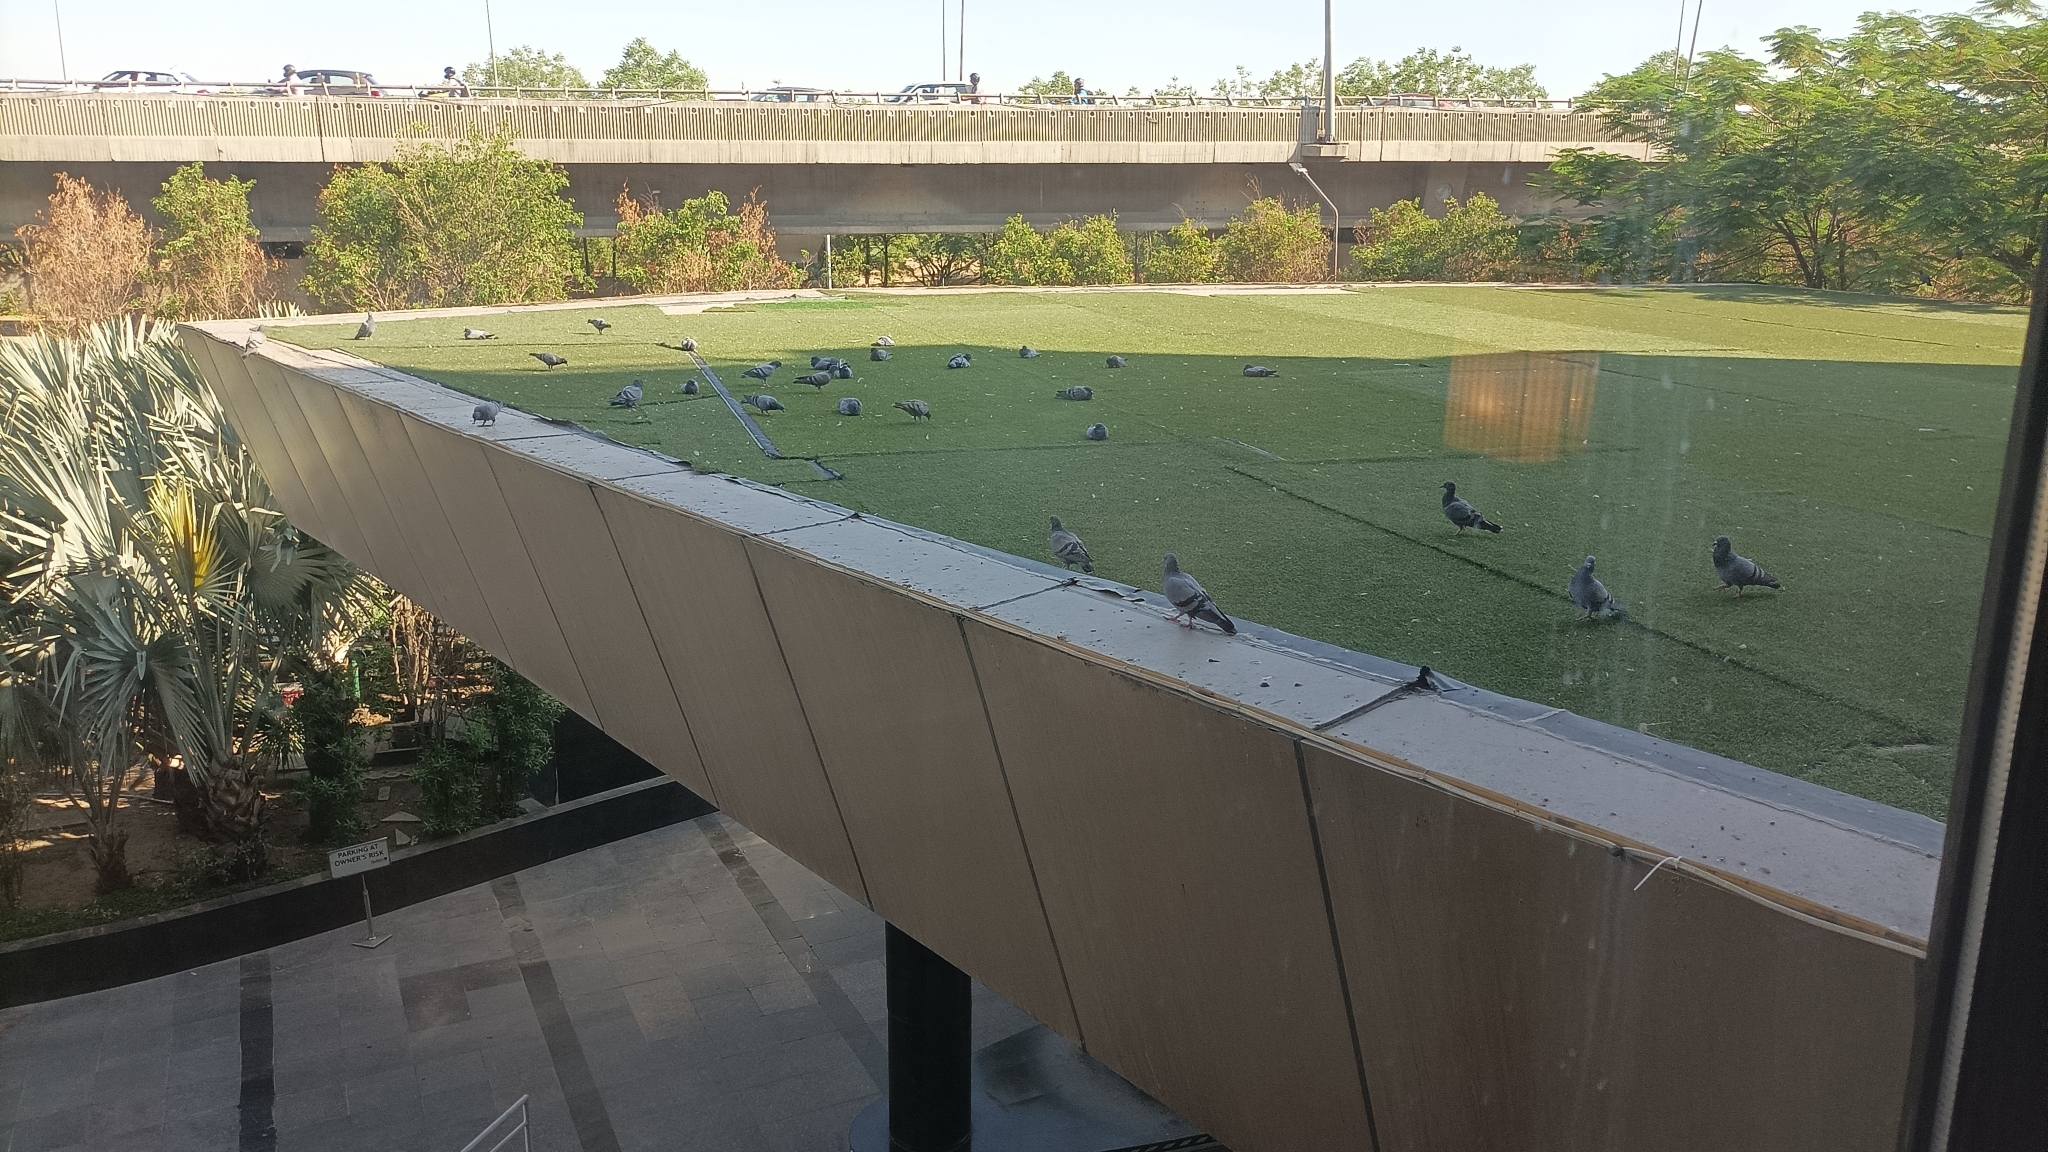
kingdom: Animalia
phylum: Chordata
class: Aves
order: Columbiformes
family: Columbidae
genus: Columba
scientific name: Columba livia
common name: Rock pigeon
